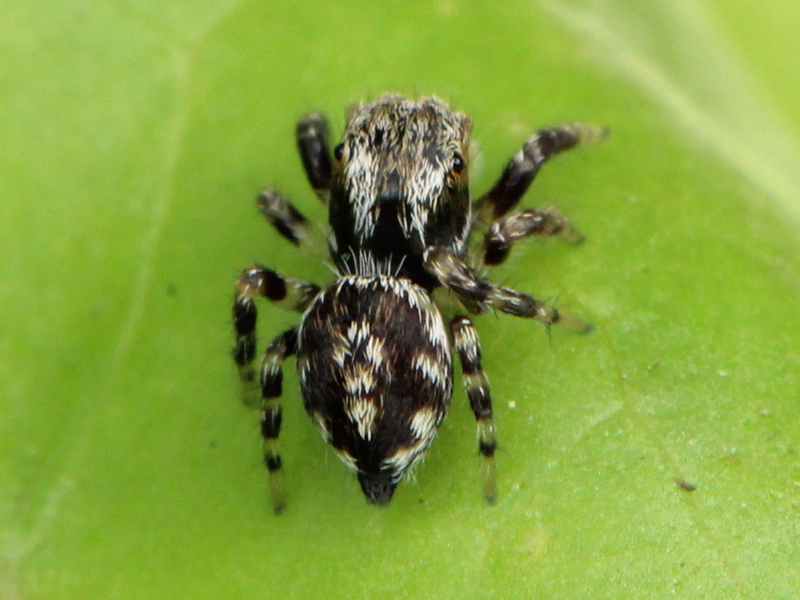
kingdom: Animalia
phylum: Arthropoda
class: Arachnida
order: Araneae
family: Salticidae
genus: Habronattus
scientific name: Habronattus agilis
